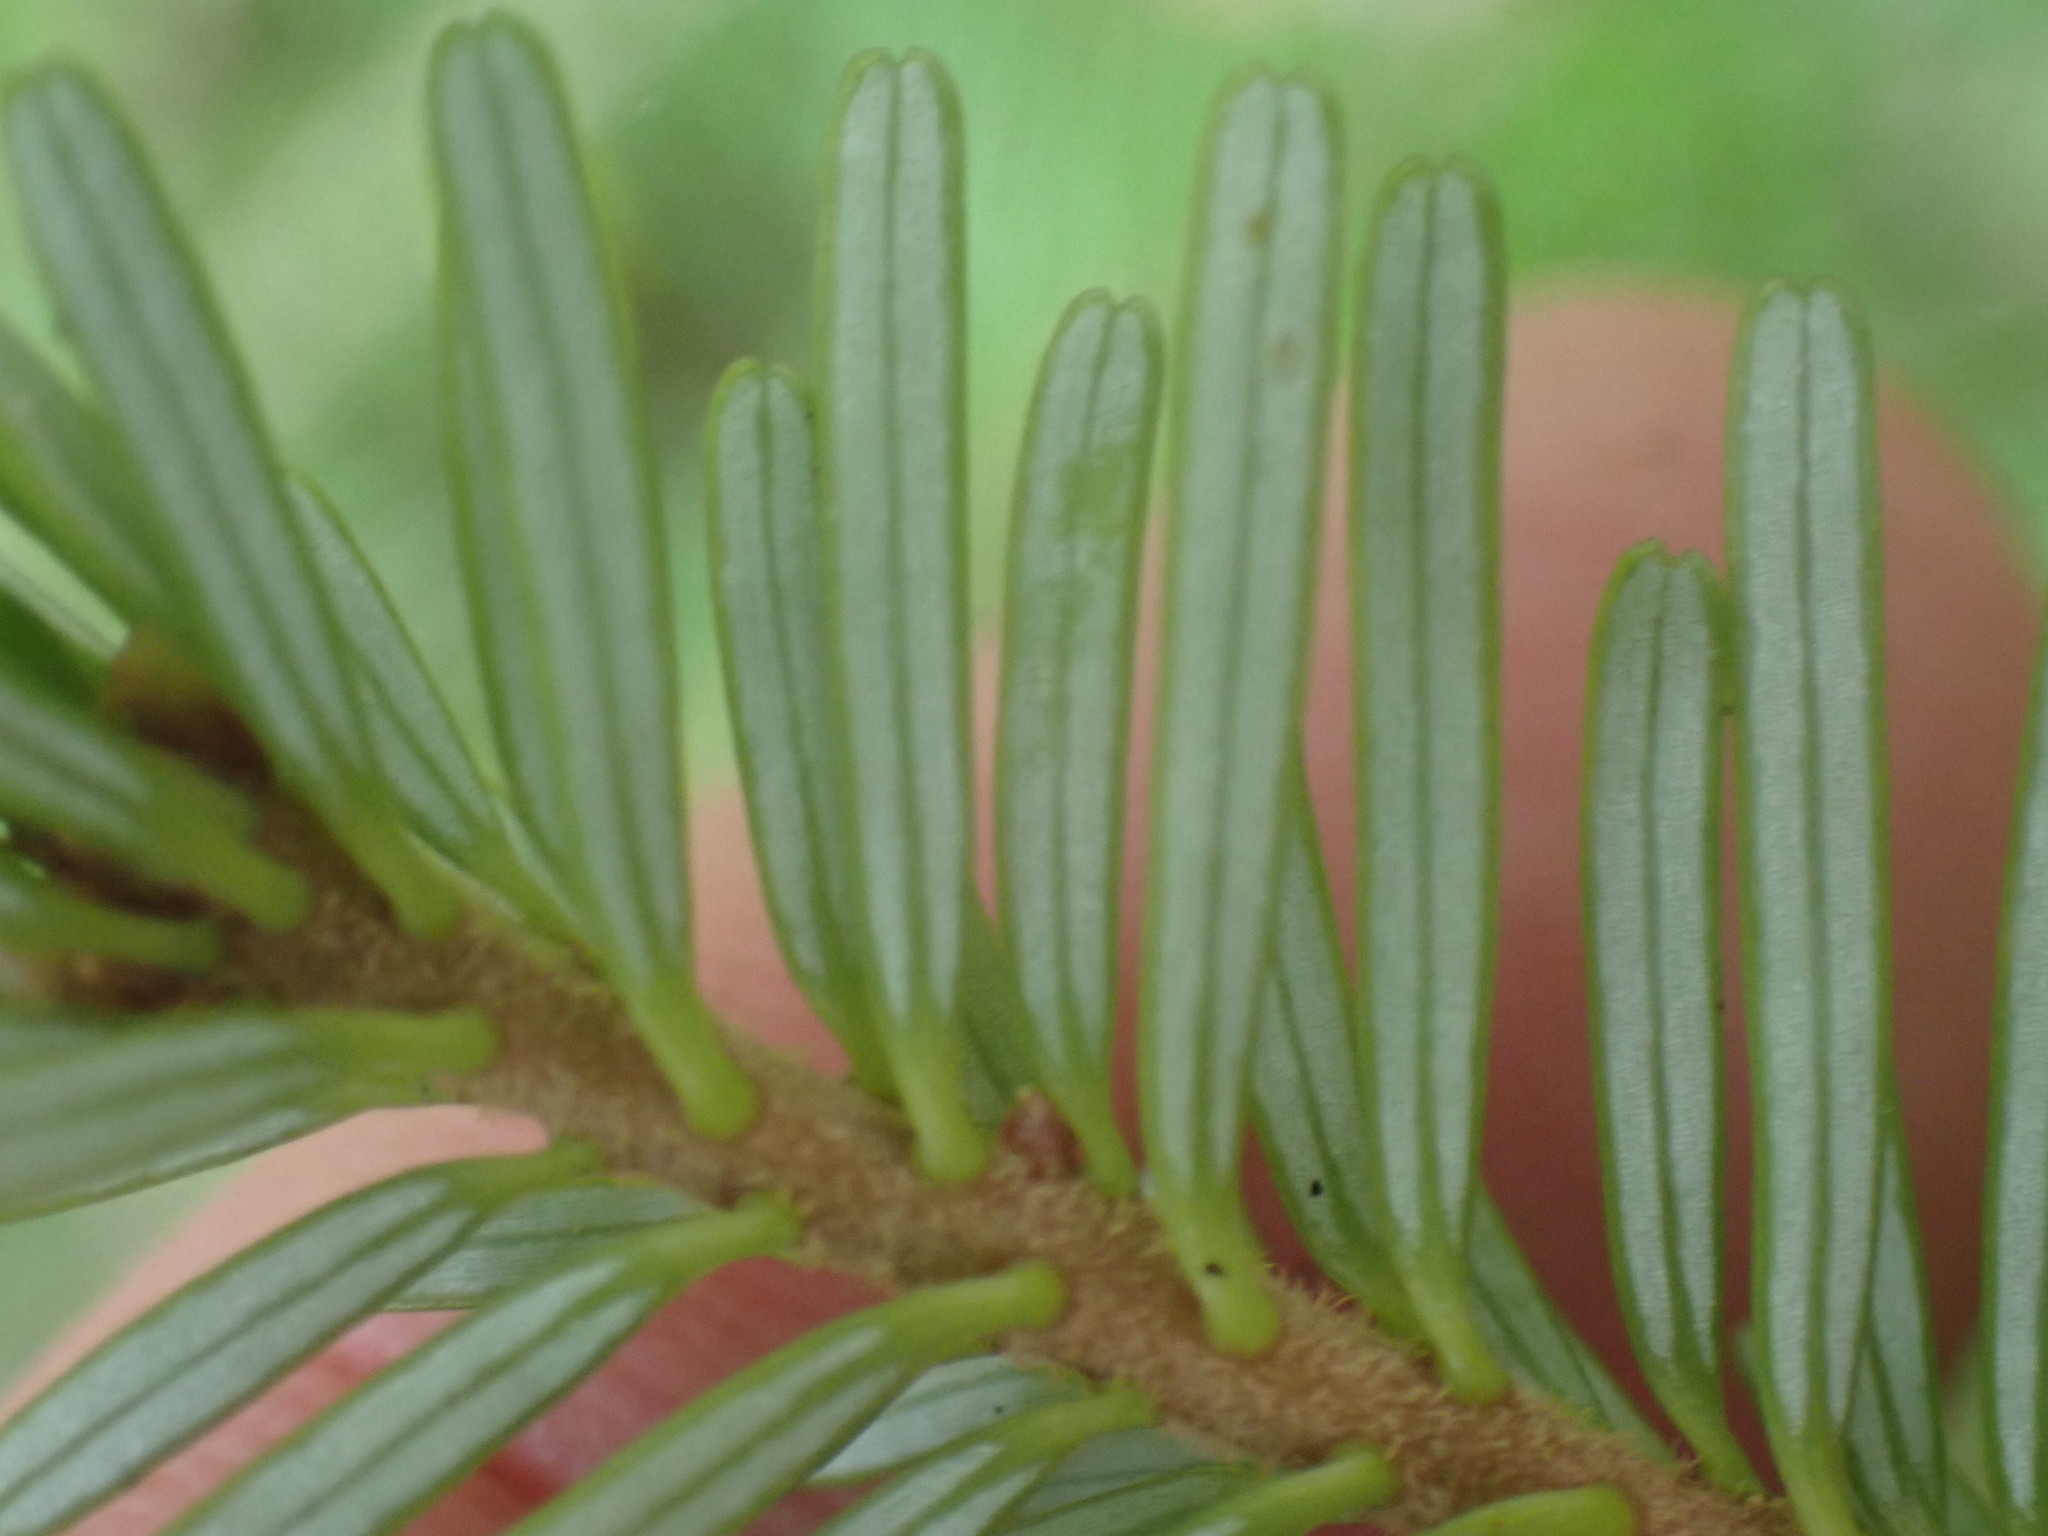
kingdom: Plantae
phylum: Tracheophyta
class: Pinopsida
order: Pinales
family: Pinaceae
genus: Abies
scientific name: Abies amabilis
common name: Pacific silver fir
